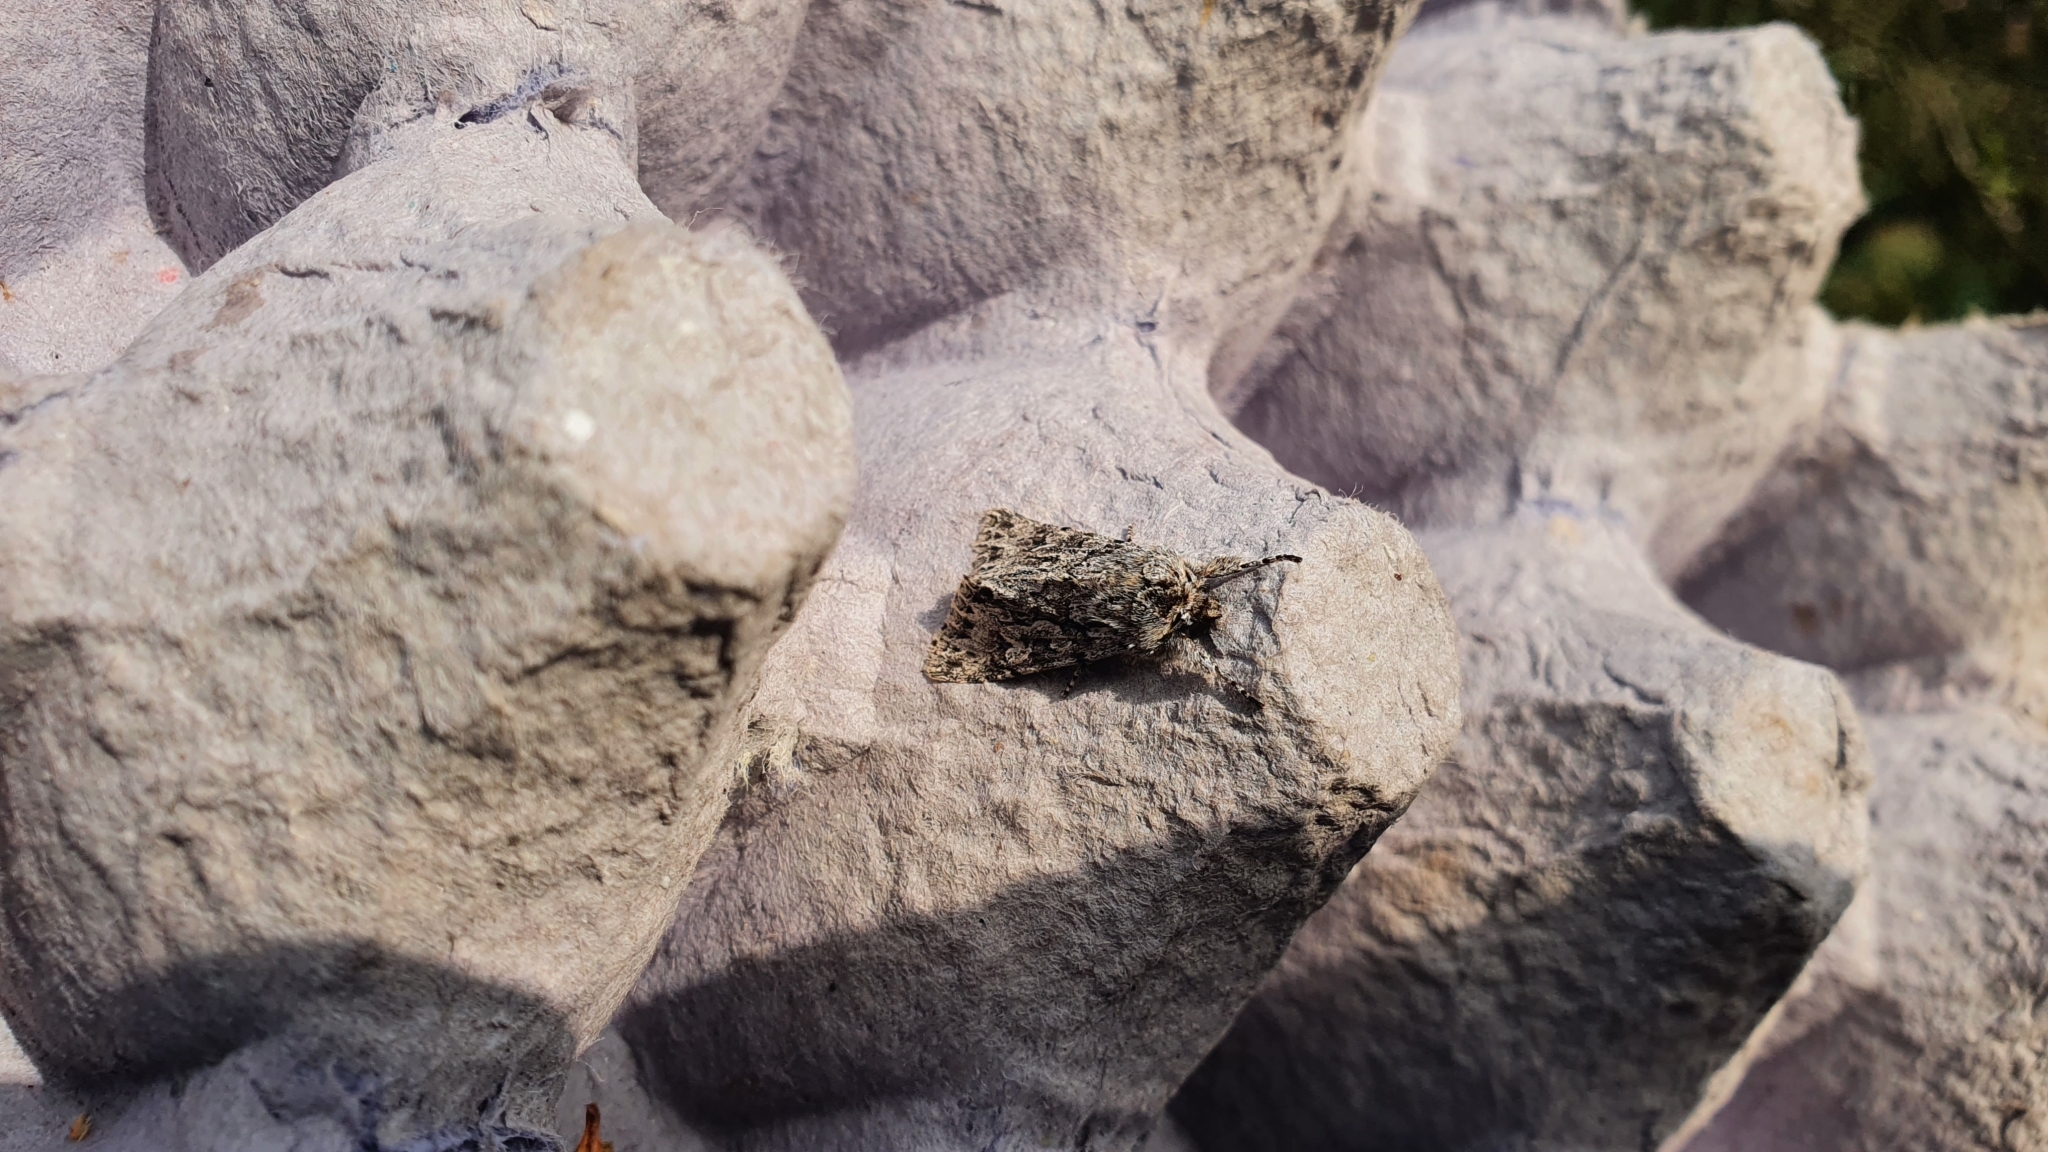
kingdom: Animalia
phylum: Arthropoda
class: Insecta
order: Lepidoptera
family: Noctuidae
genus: Xylocampa
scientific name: Xylocampa areola
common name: Early grey
